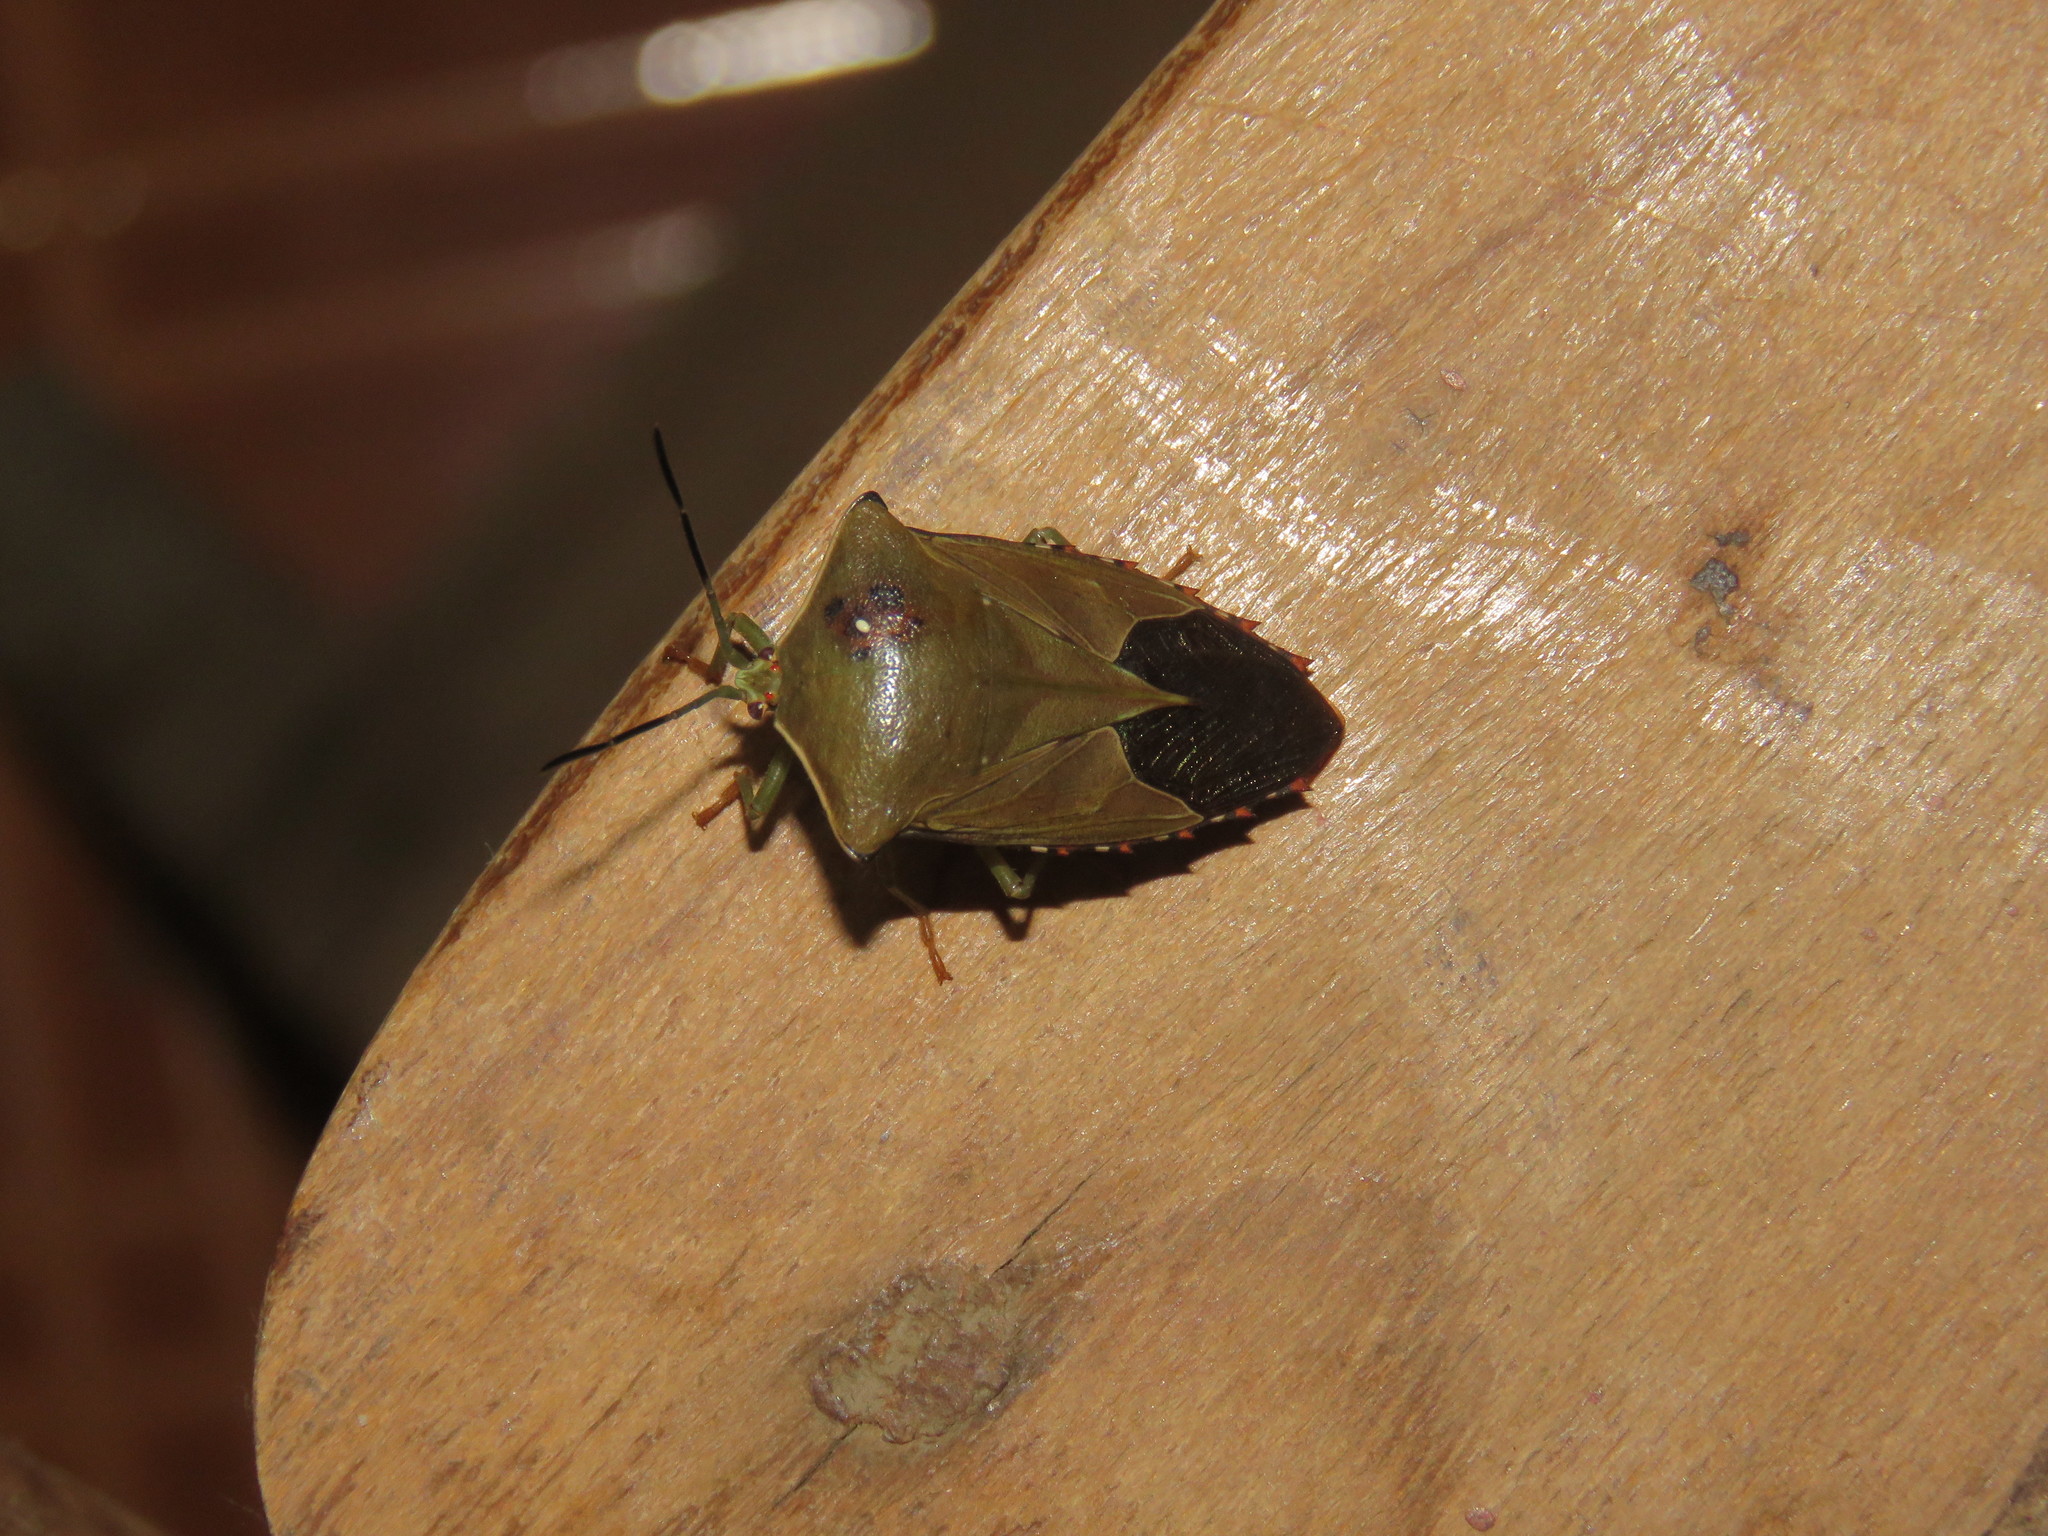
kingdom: Animalia
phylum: Arthropoda
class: Insecta
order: Hemiptera
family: Tessaratomidae
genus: Piezosternum
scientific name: Piezosternum subulatum
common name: Paula's giant shield bug
